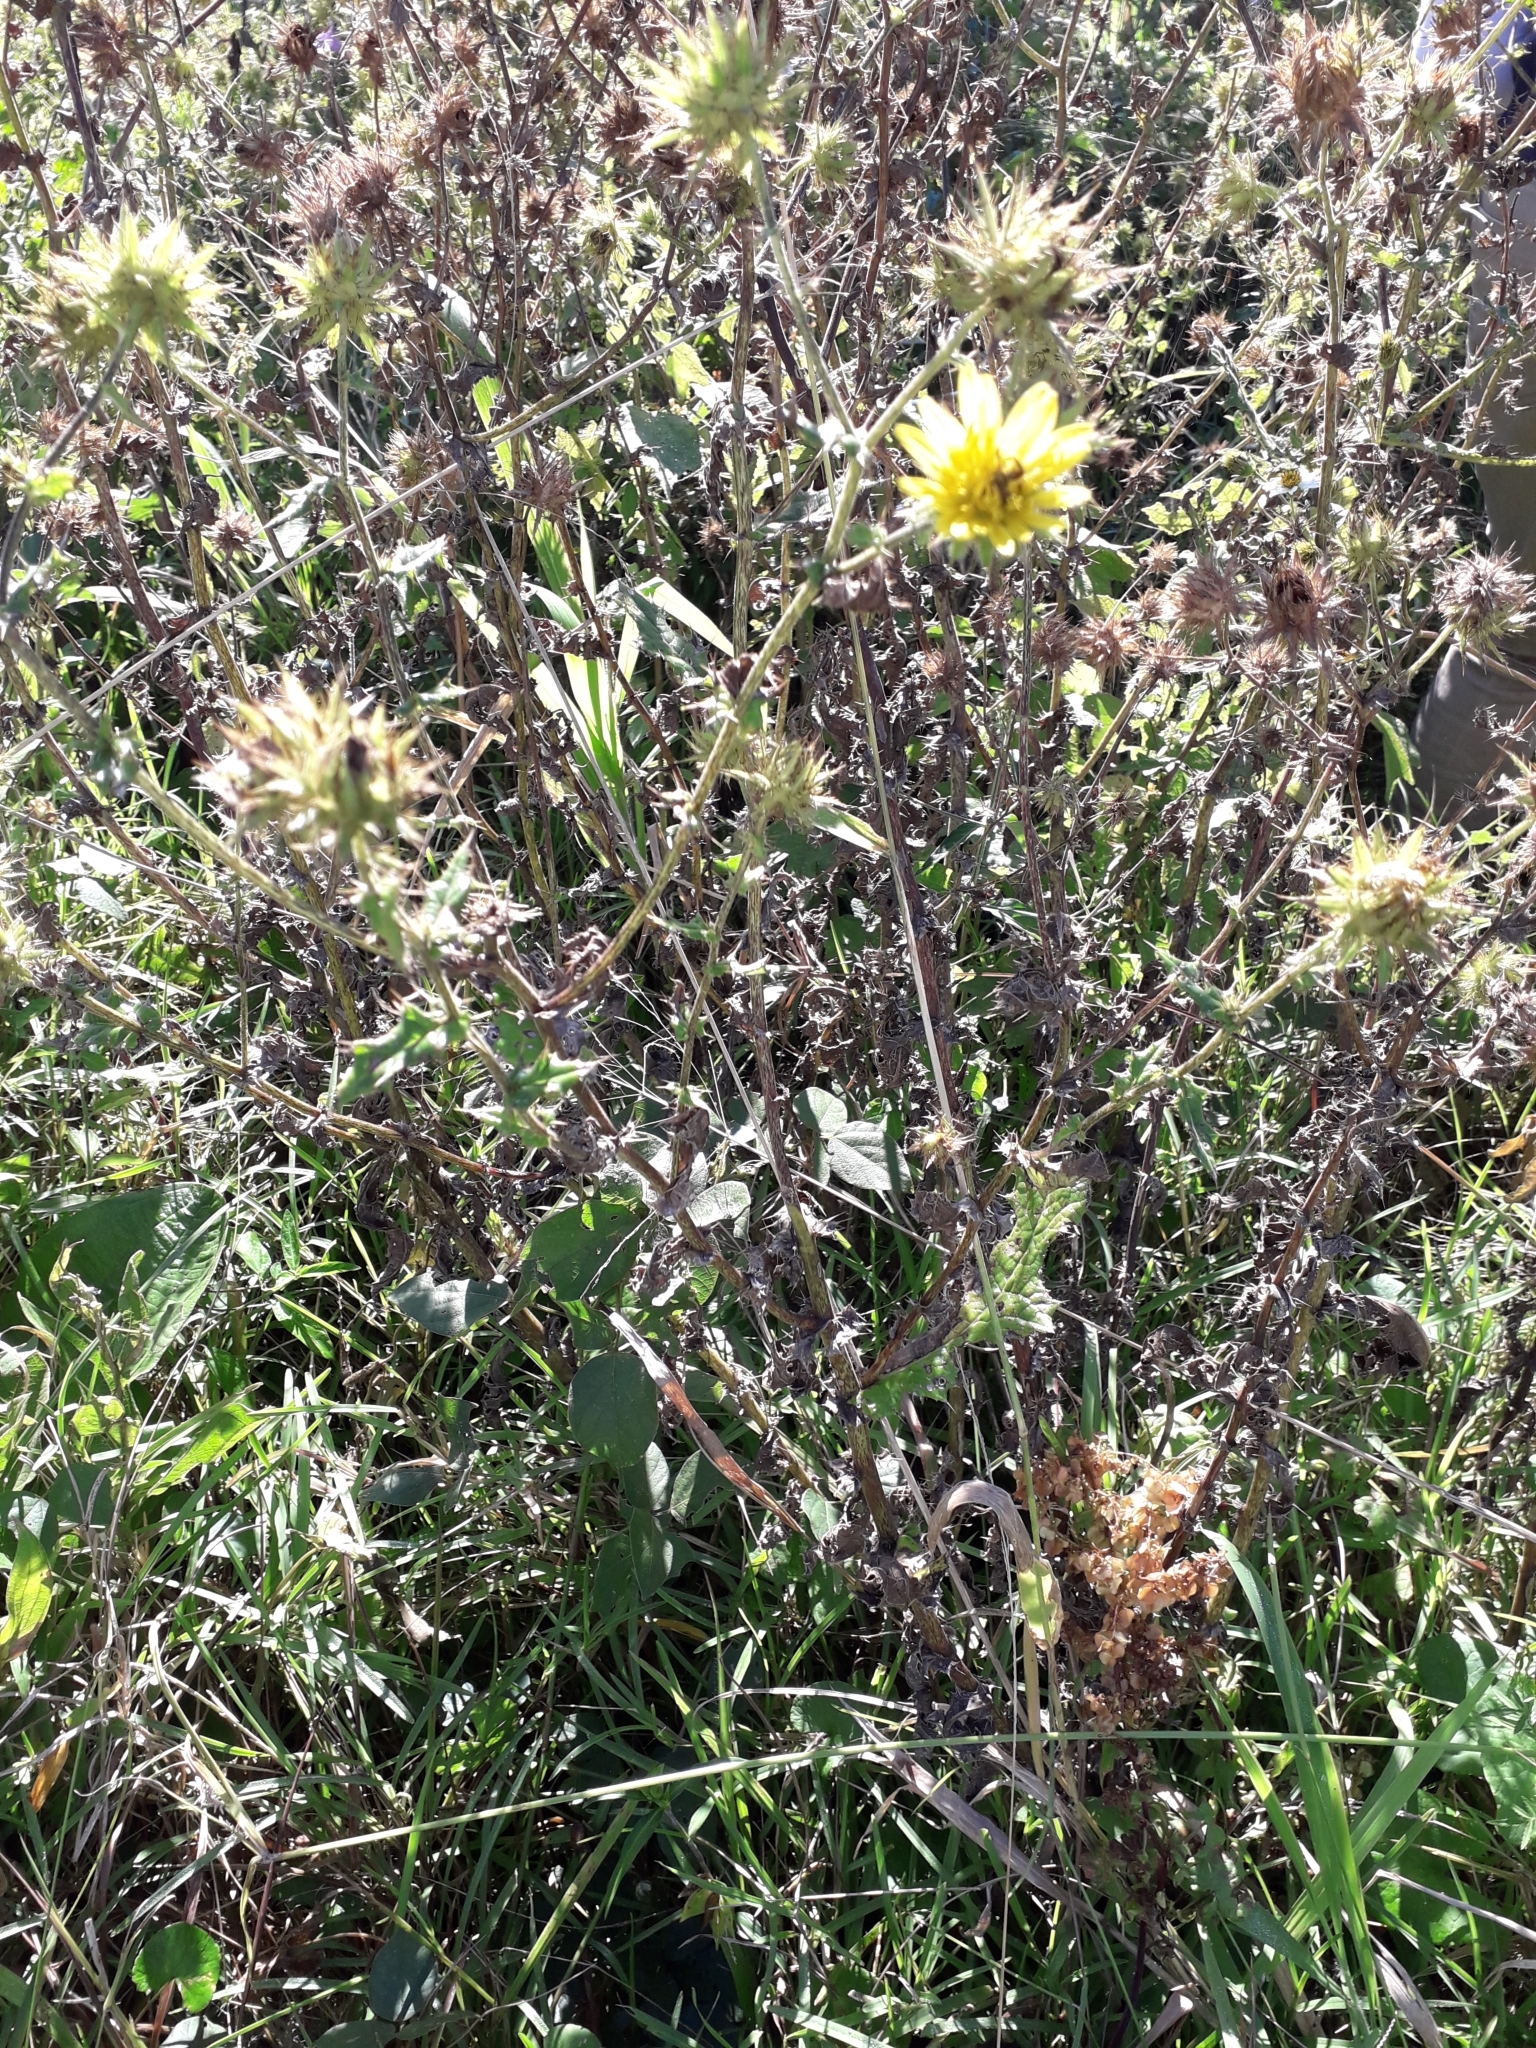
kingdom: Plantae
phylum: Tracheophyta
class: Magnoliopsida
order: Asterales
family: Asteraceae
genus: Berkheya
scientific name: Berkheya erysithales
